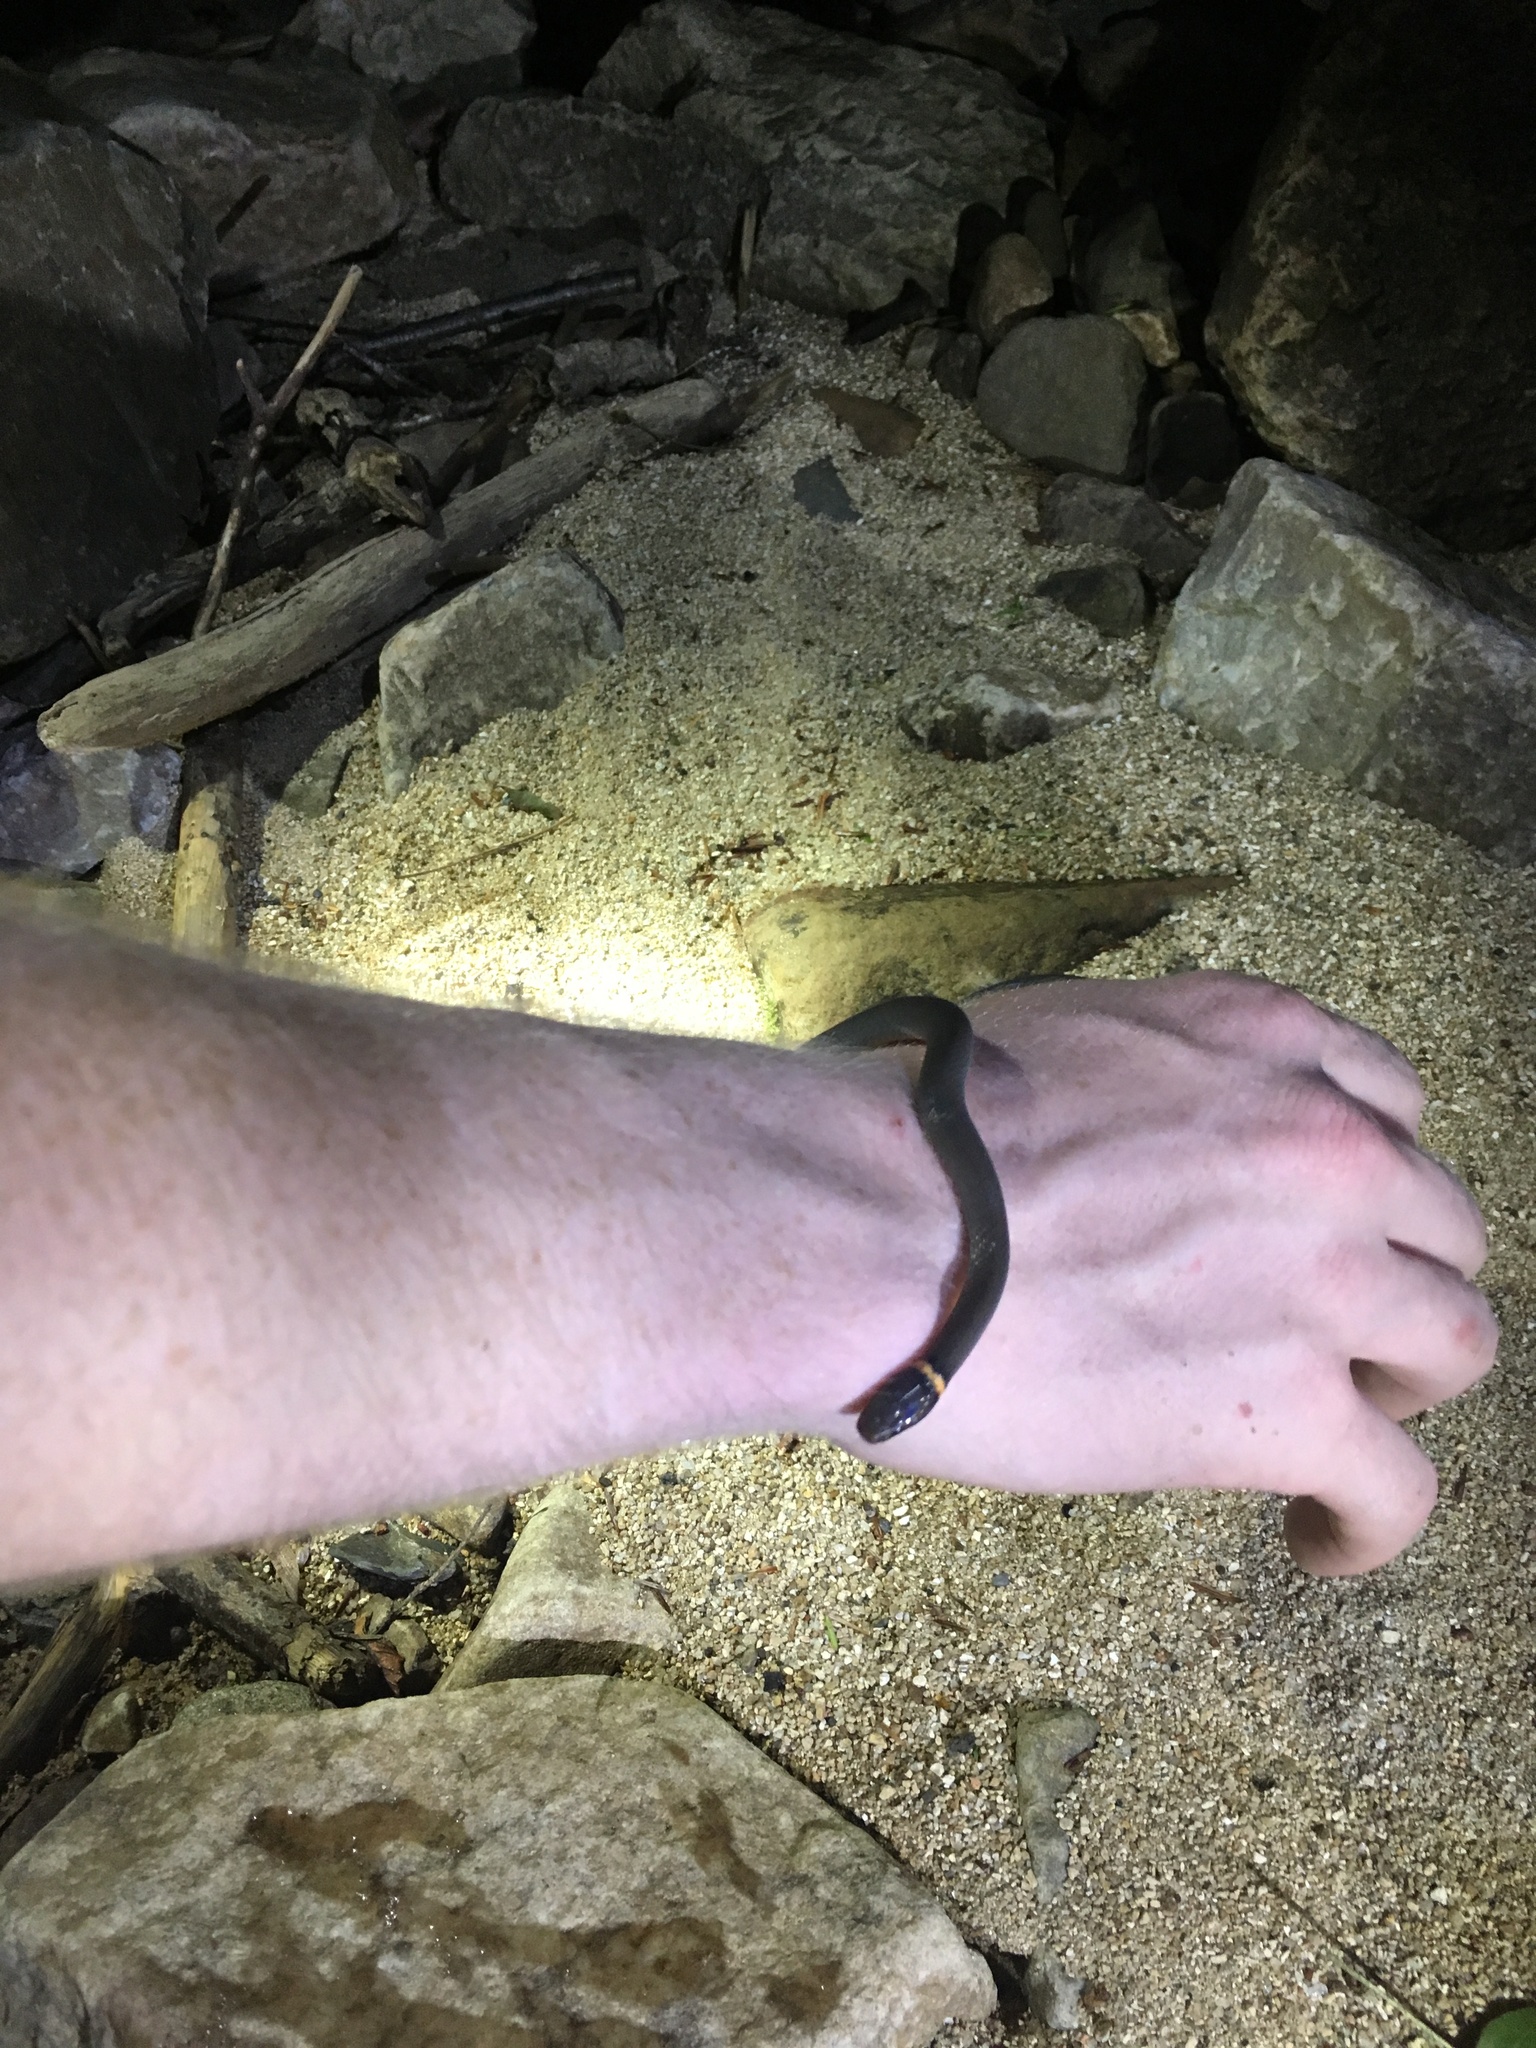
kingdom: Animalia
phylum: Chordata
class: Squamata
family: Colubridae
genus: Diadophis
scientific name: Diadophis punctatus
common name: Ringneck snake
